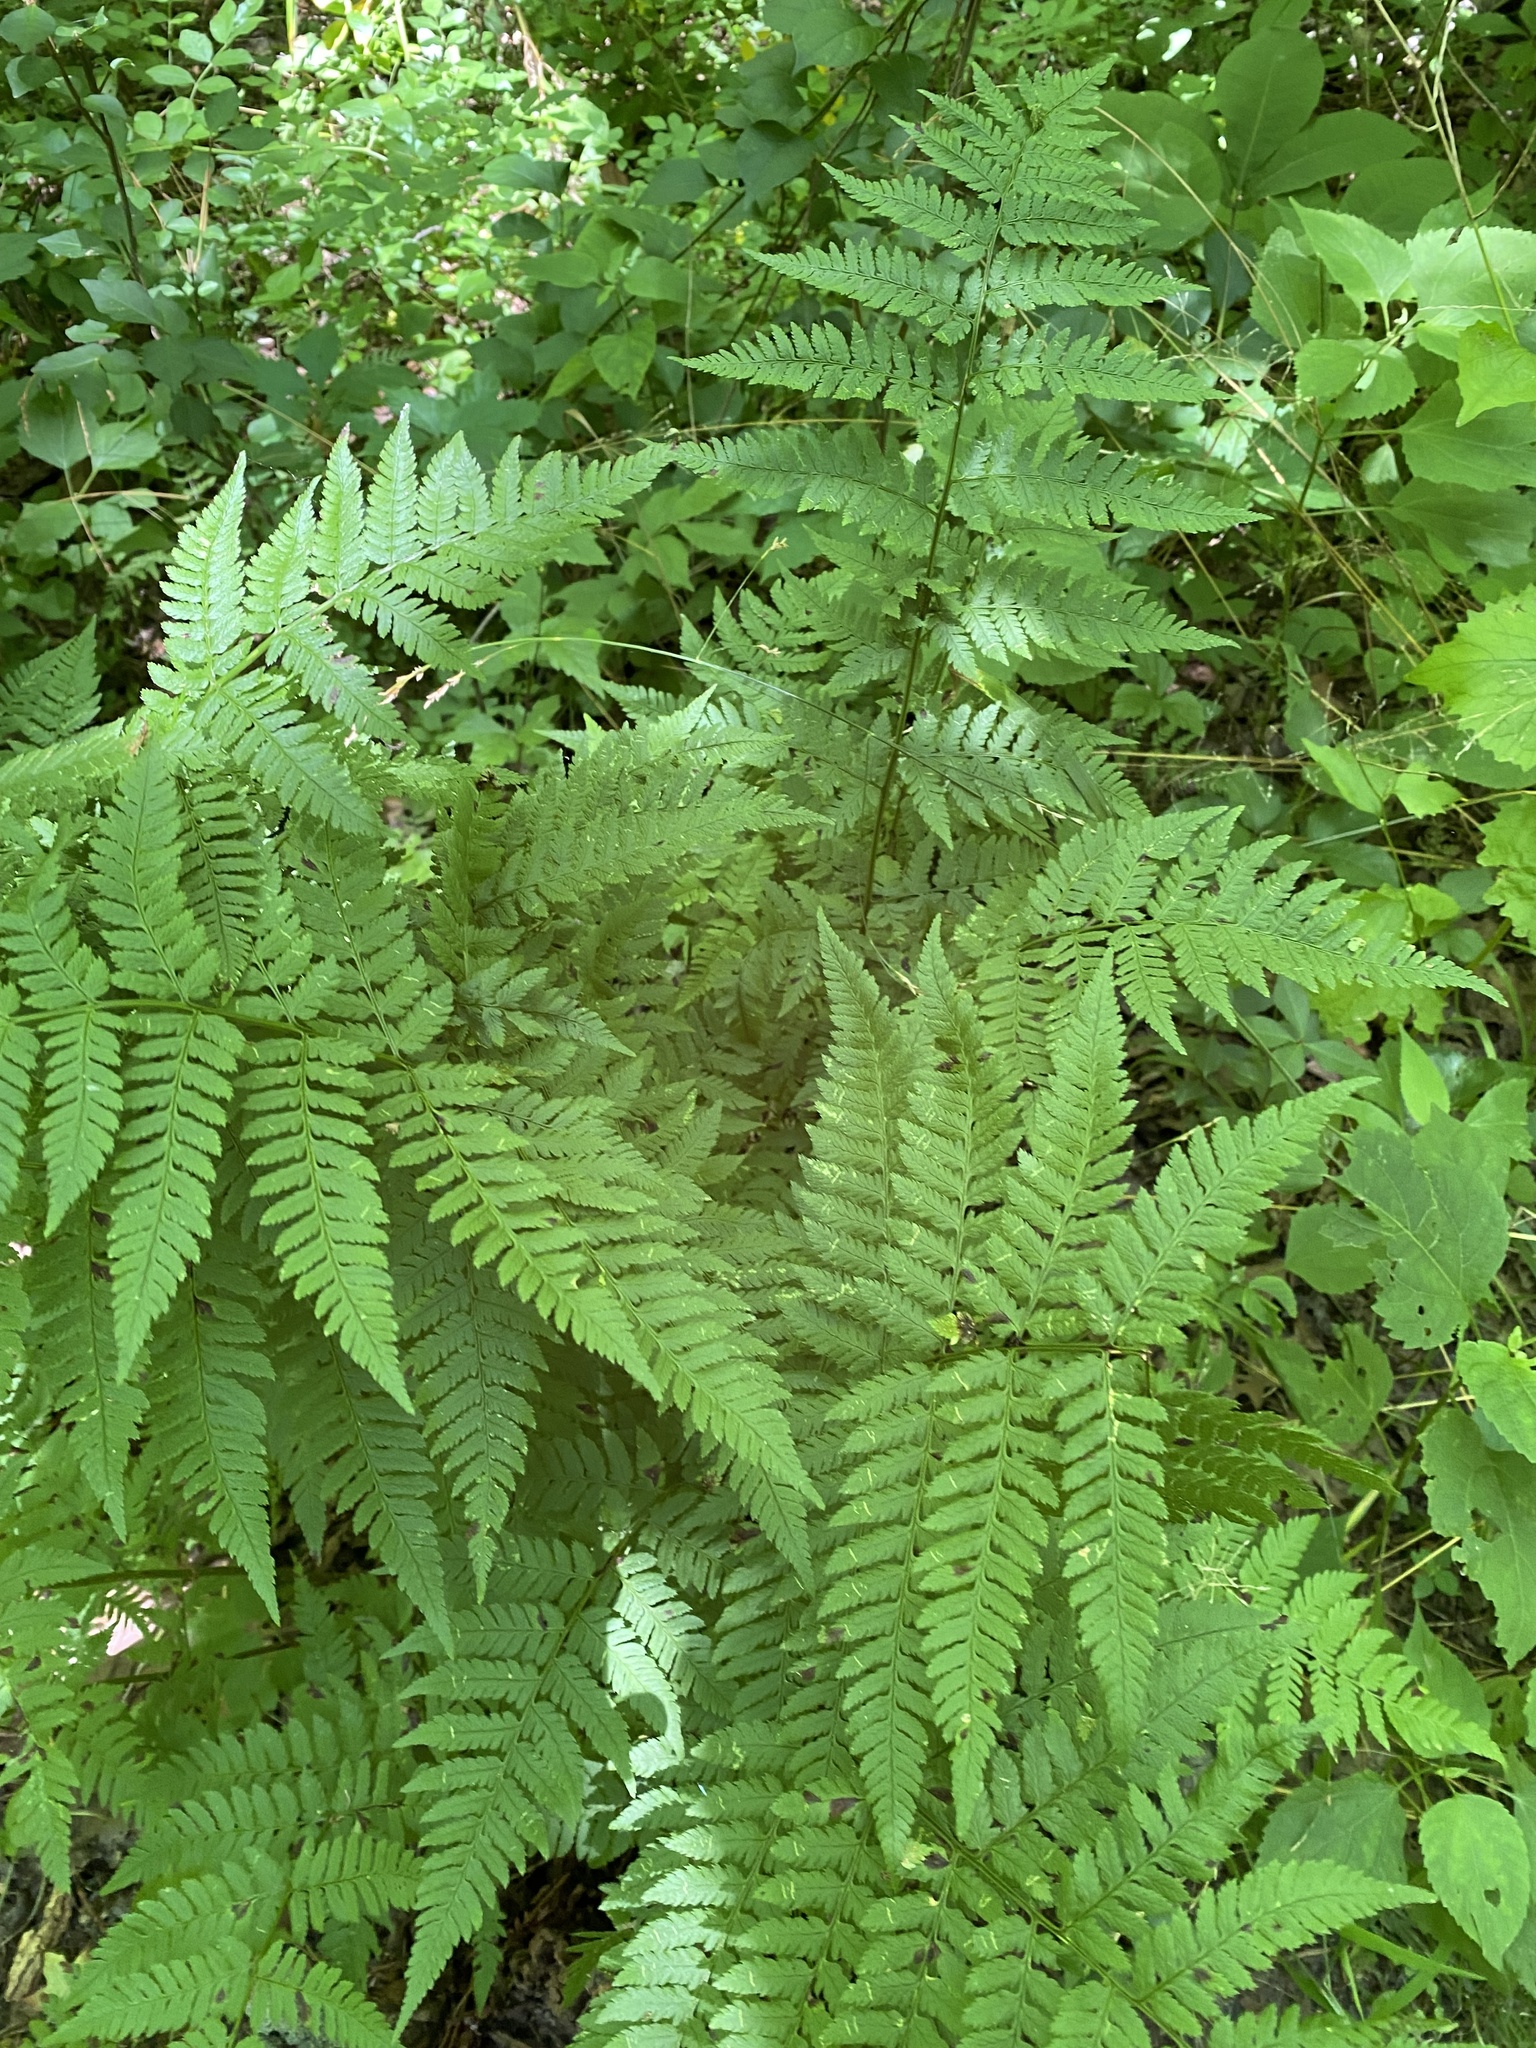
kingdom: Plantae
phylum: Tracheophyta
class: Polypodiopsida
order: Polypodiales
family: Dryopteridaceae
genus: Dryopteris
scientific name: Dryopteris carthusiana
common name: Narrow buckler-fern
